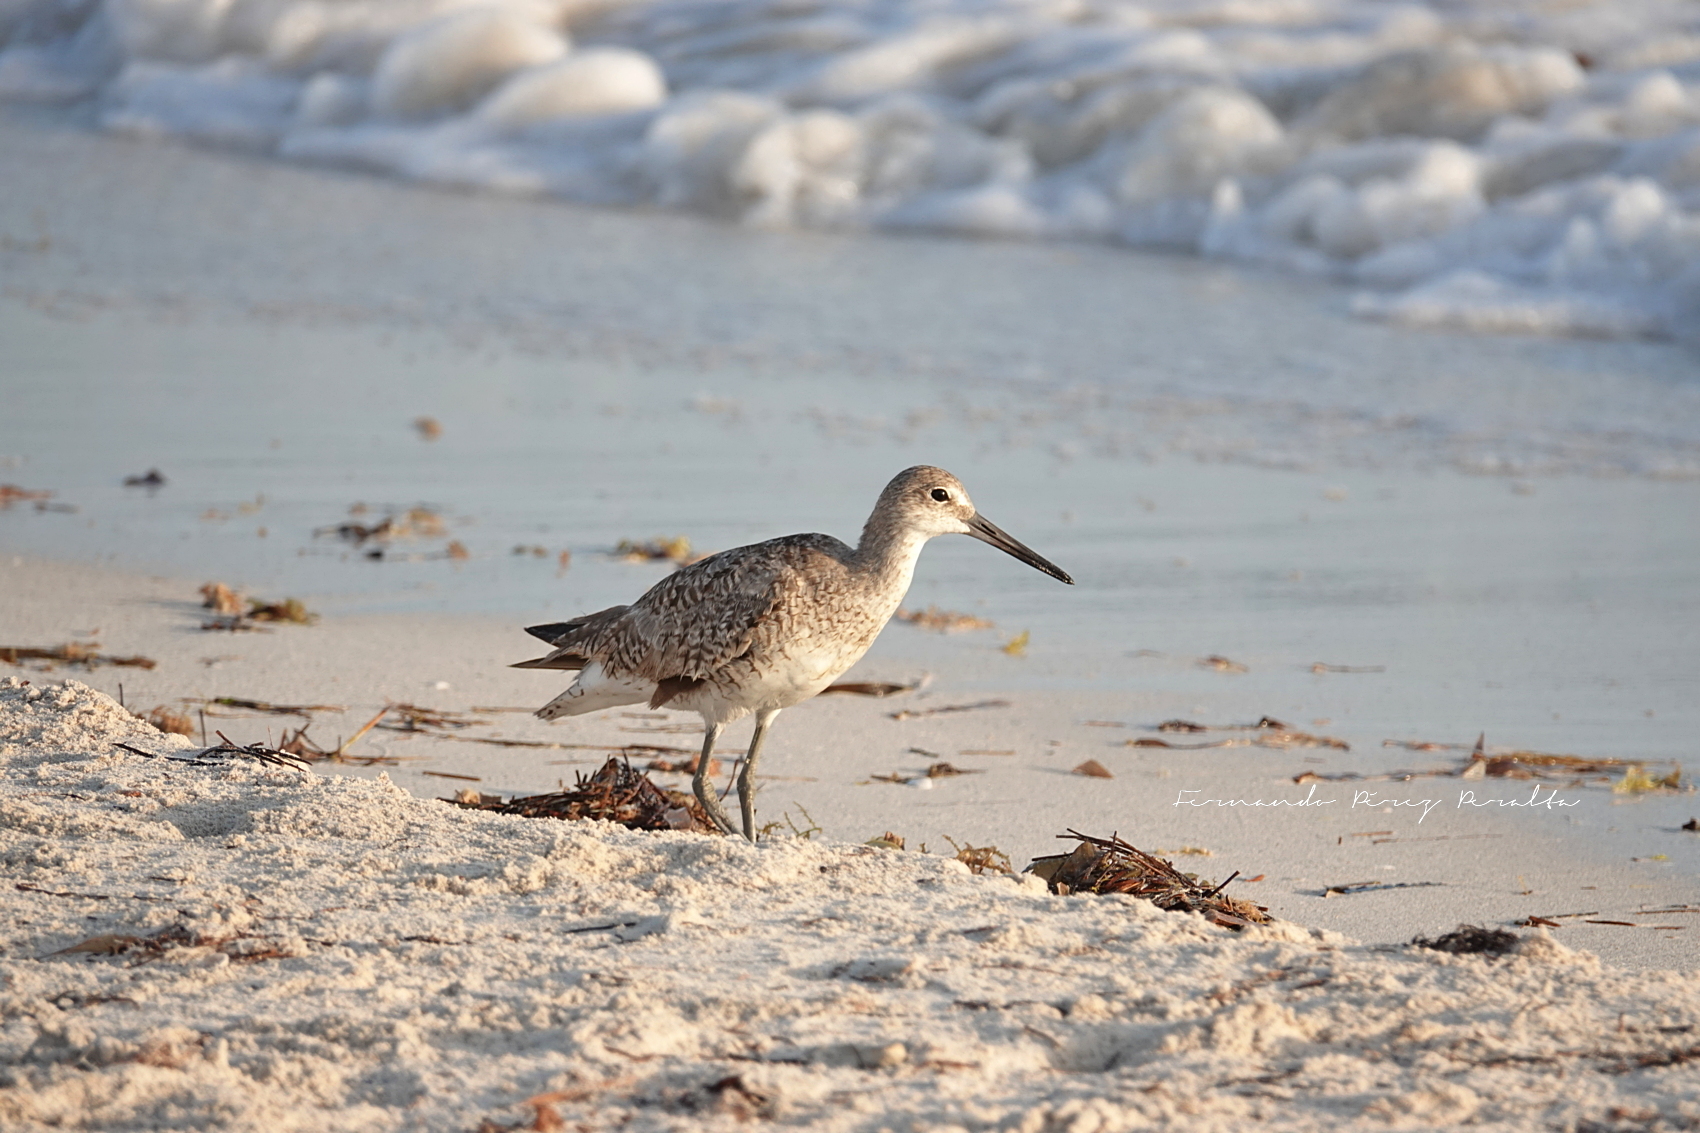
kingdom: Animalia
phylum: Chordata
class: Aves
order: Charadriiformes
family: Scolopacidae
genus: Tringa
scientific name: Tringa semipalmata
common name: Willet
